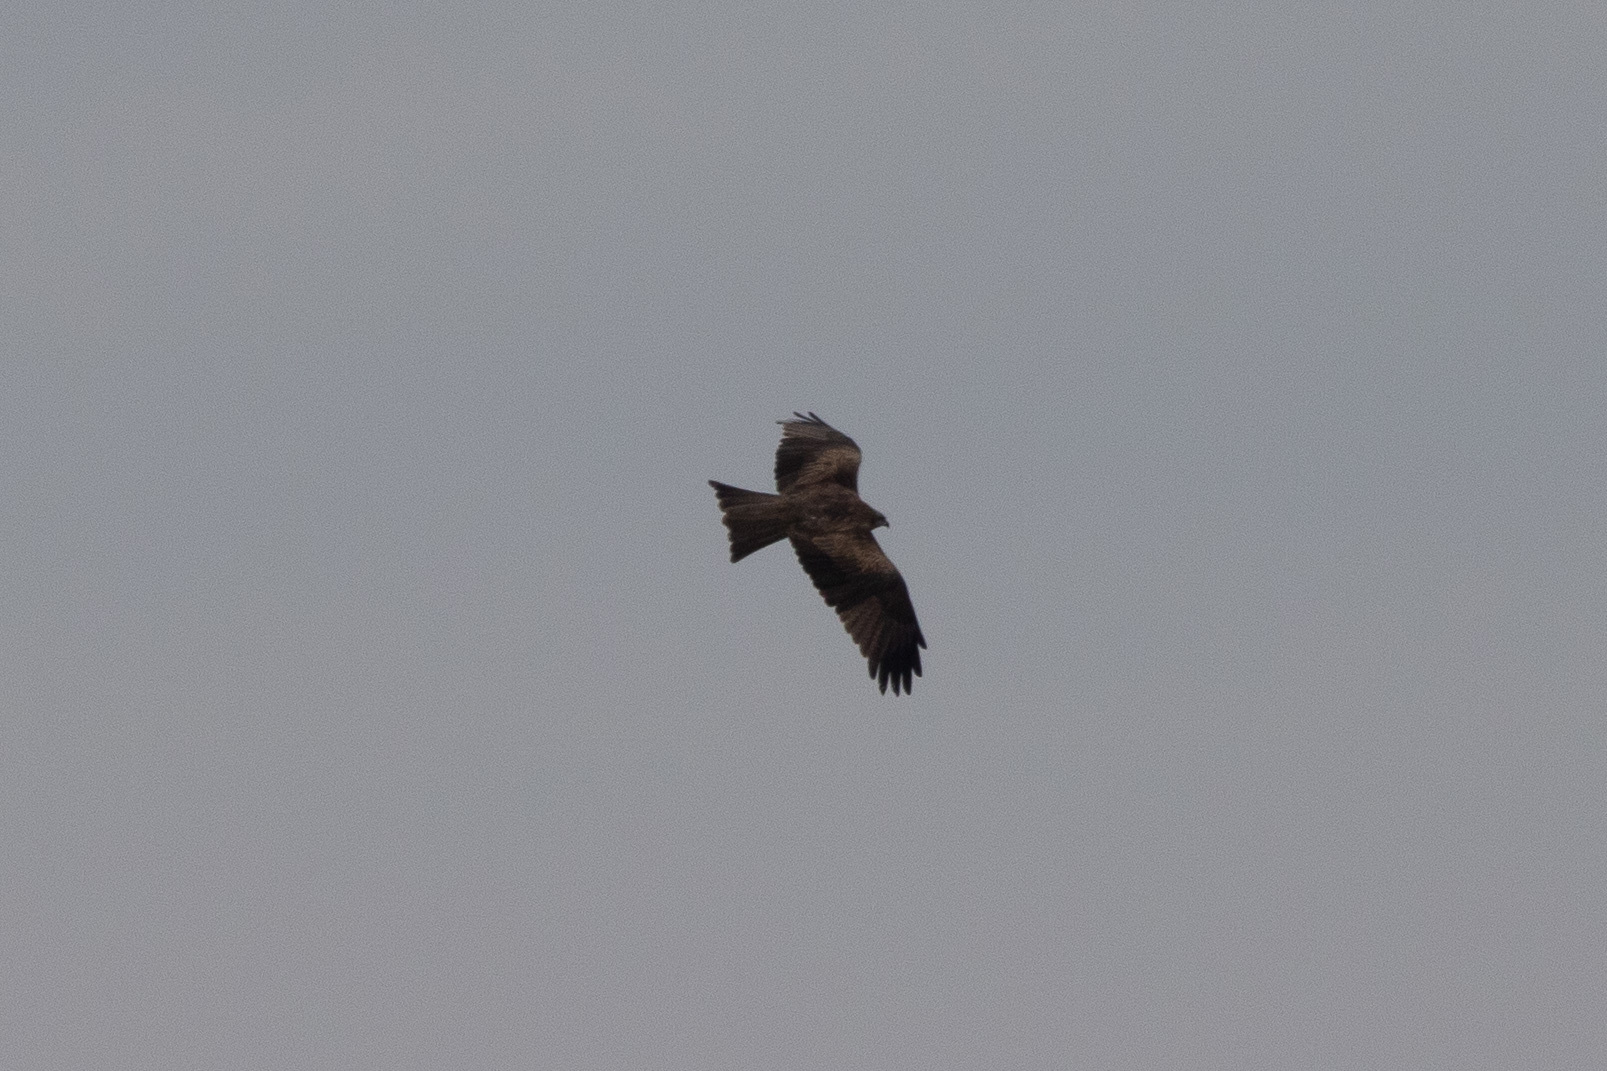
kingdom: Animalia
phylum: Chordata
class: Aves
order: Accipitriformes
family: Accipitridae
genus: Milvus
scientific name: Milvus migrans
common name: Black kite
